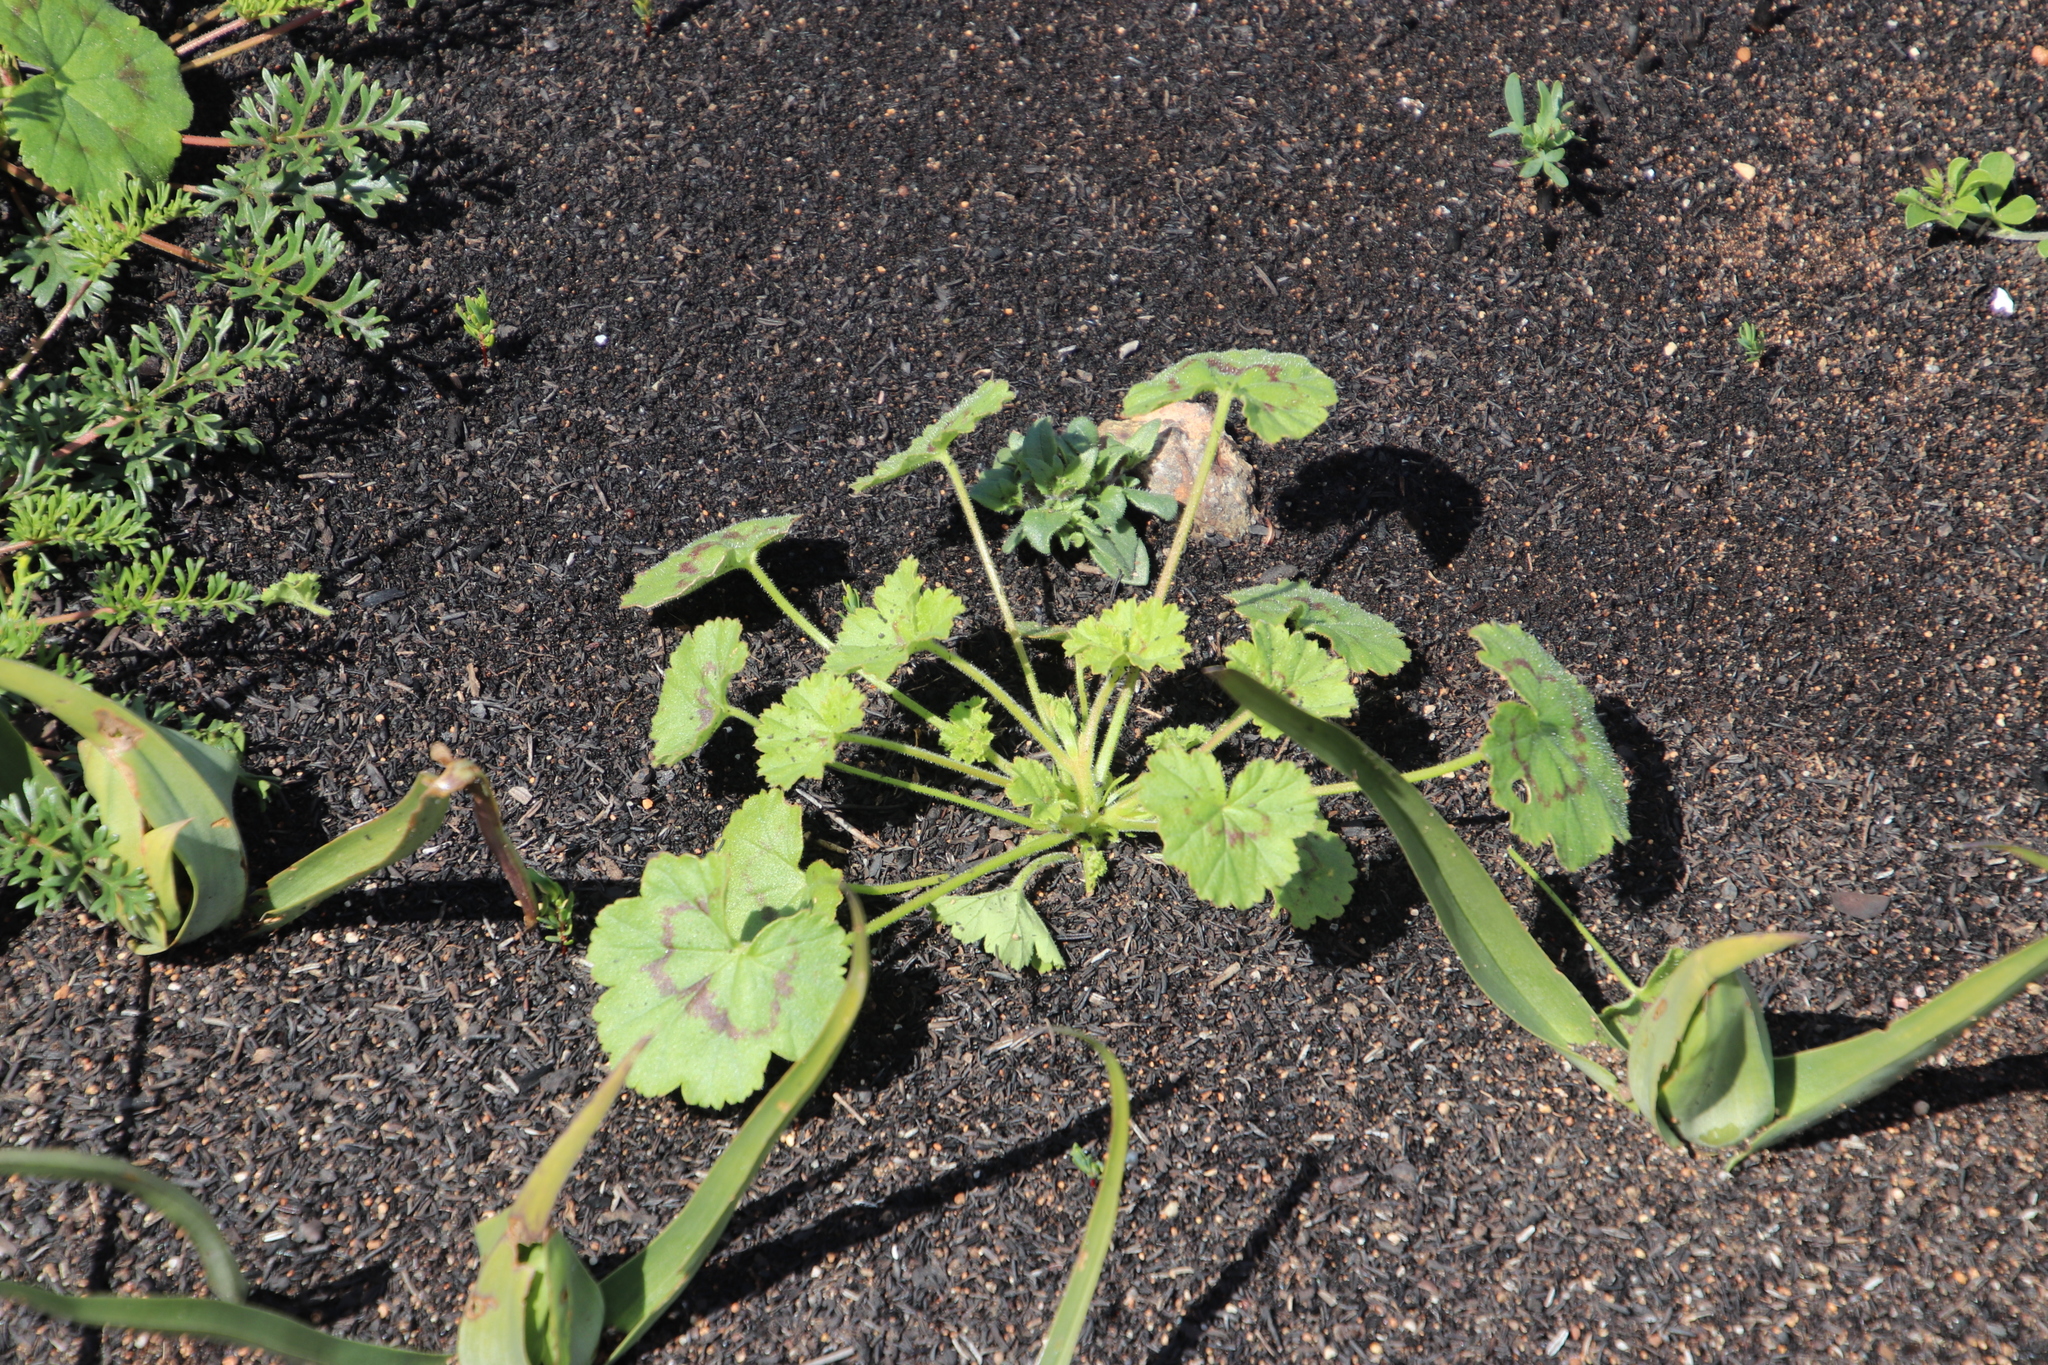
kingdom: Plantae
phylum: Tracheophyta
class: Magnoliopsida
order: Geraniales
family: Geraniaceae
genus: Pelargonium
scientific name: Pelargonium elongatum
